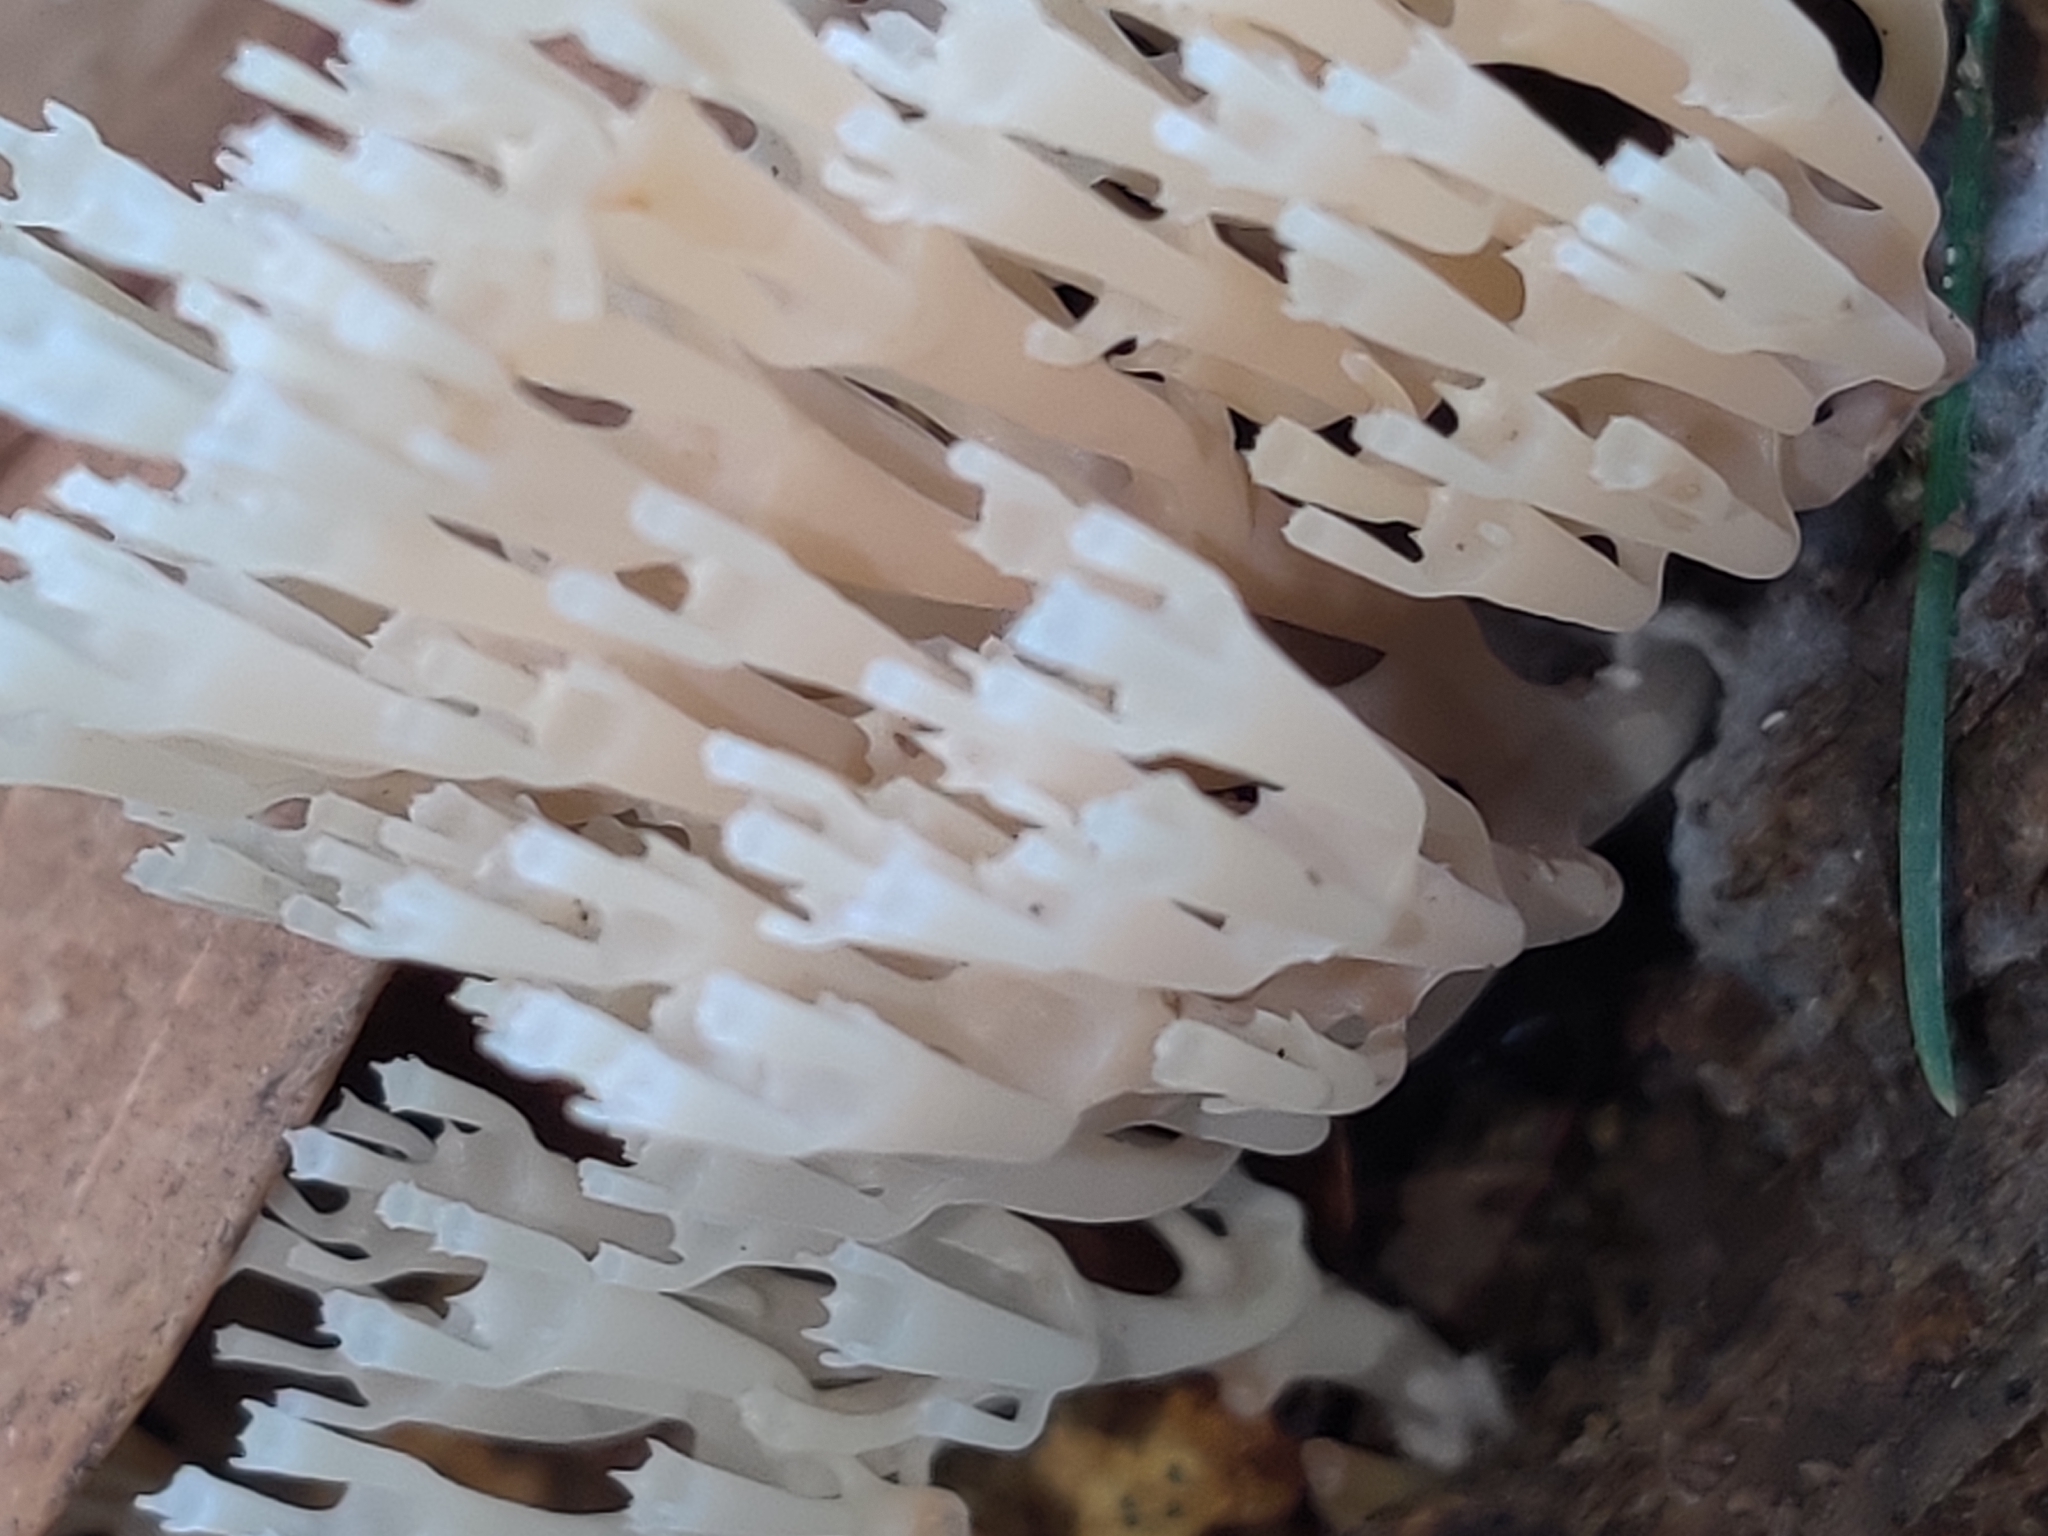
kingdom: Fungi
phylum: Basidiomycota
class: Agaricomycetes
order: Russulales
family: Auriscalpiaceae
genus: Artomyces
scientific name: Artomyces pyxidatus
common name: Crown-tipped coral fungus
